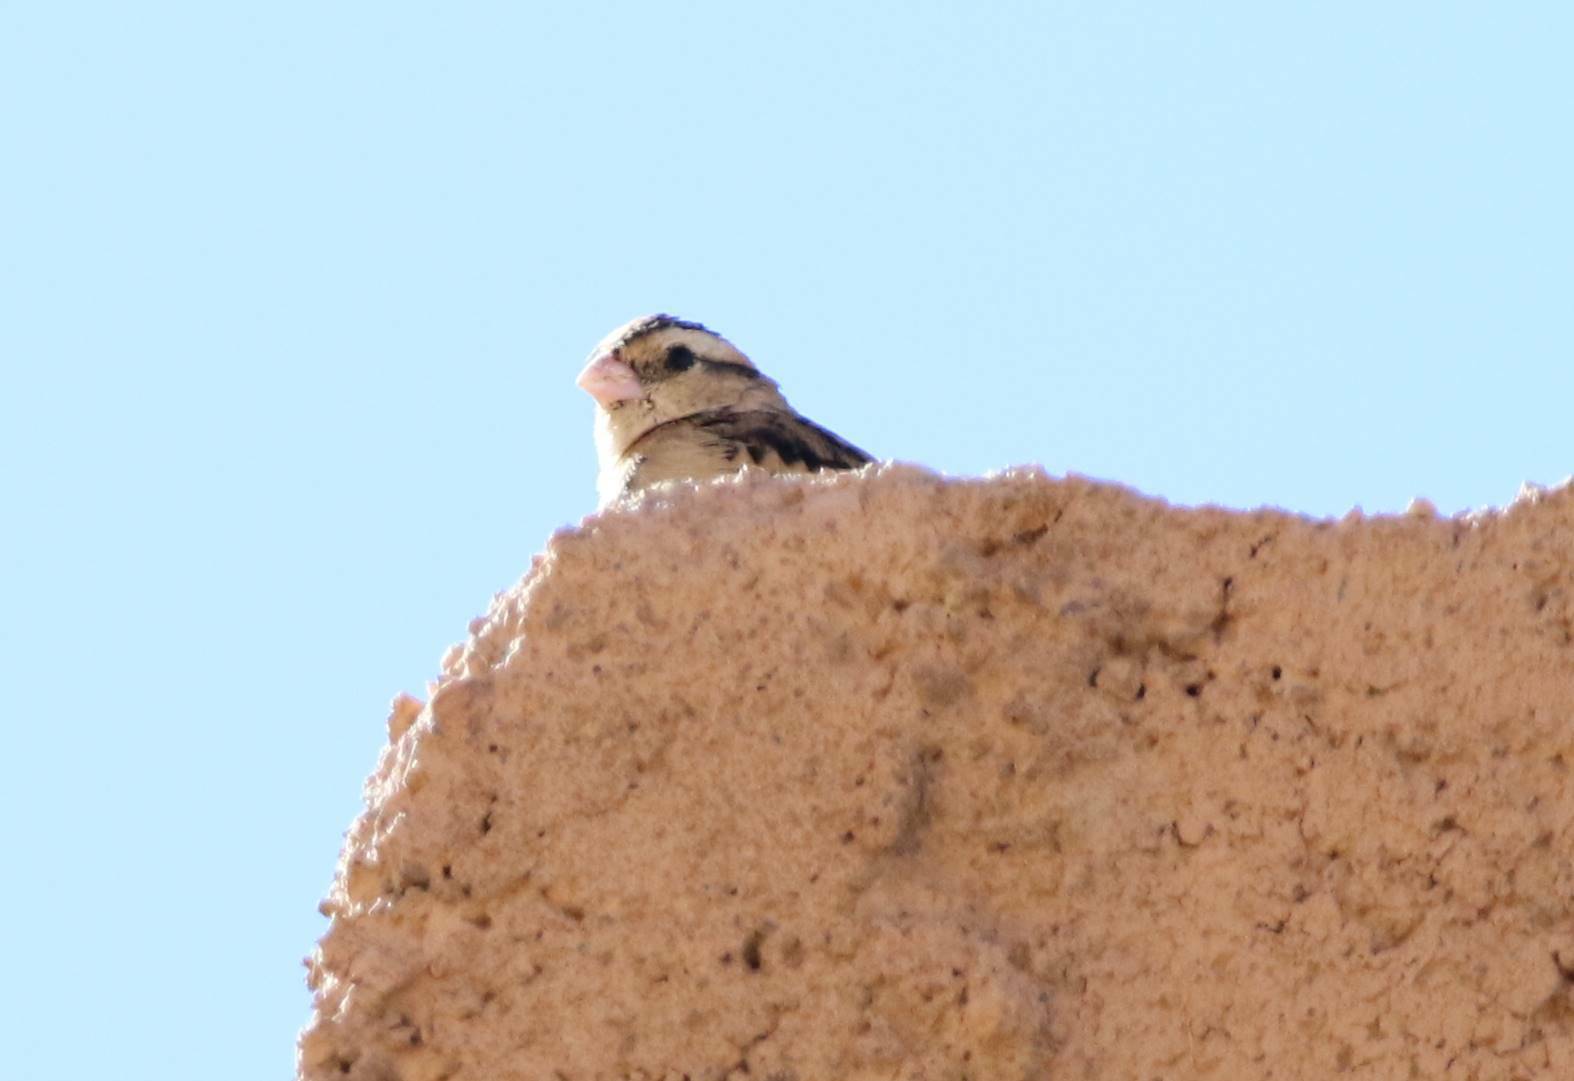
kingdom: Animalia
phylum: Chordata
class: Aves
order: Passeriformes
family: Viduidae
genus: Vidua
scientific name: Vidua chalybeata
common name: Village indigobird
